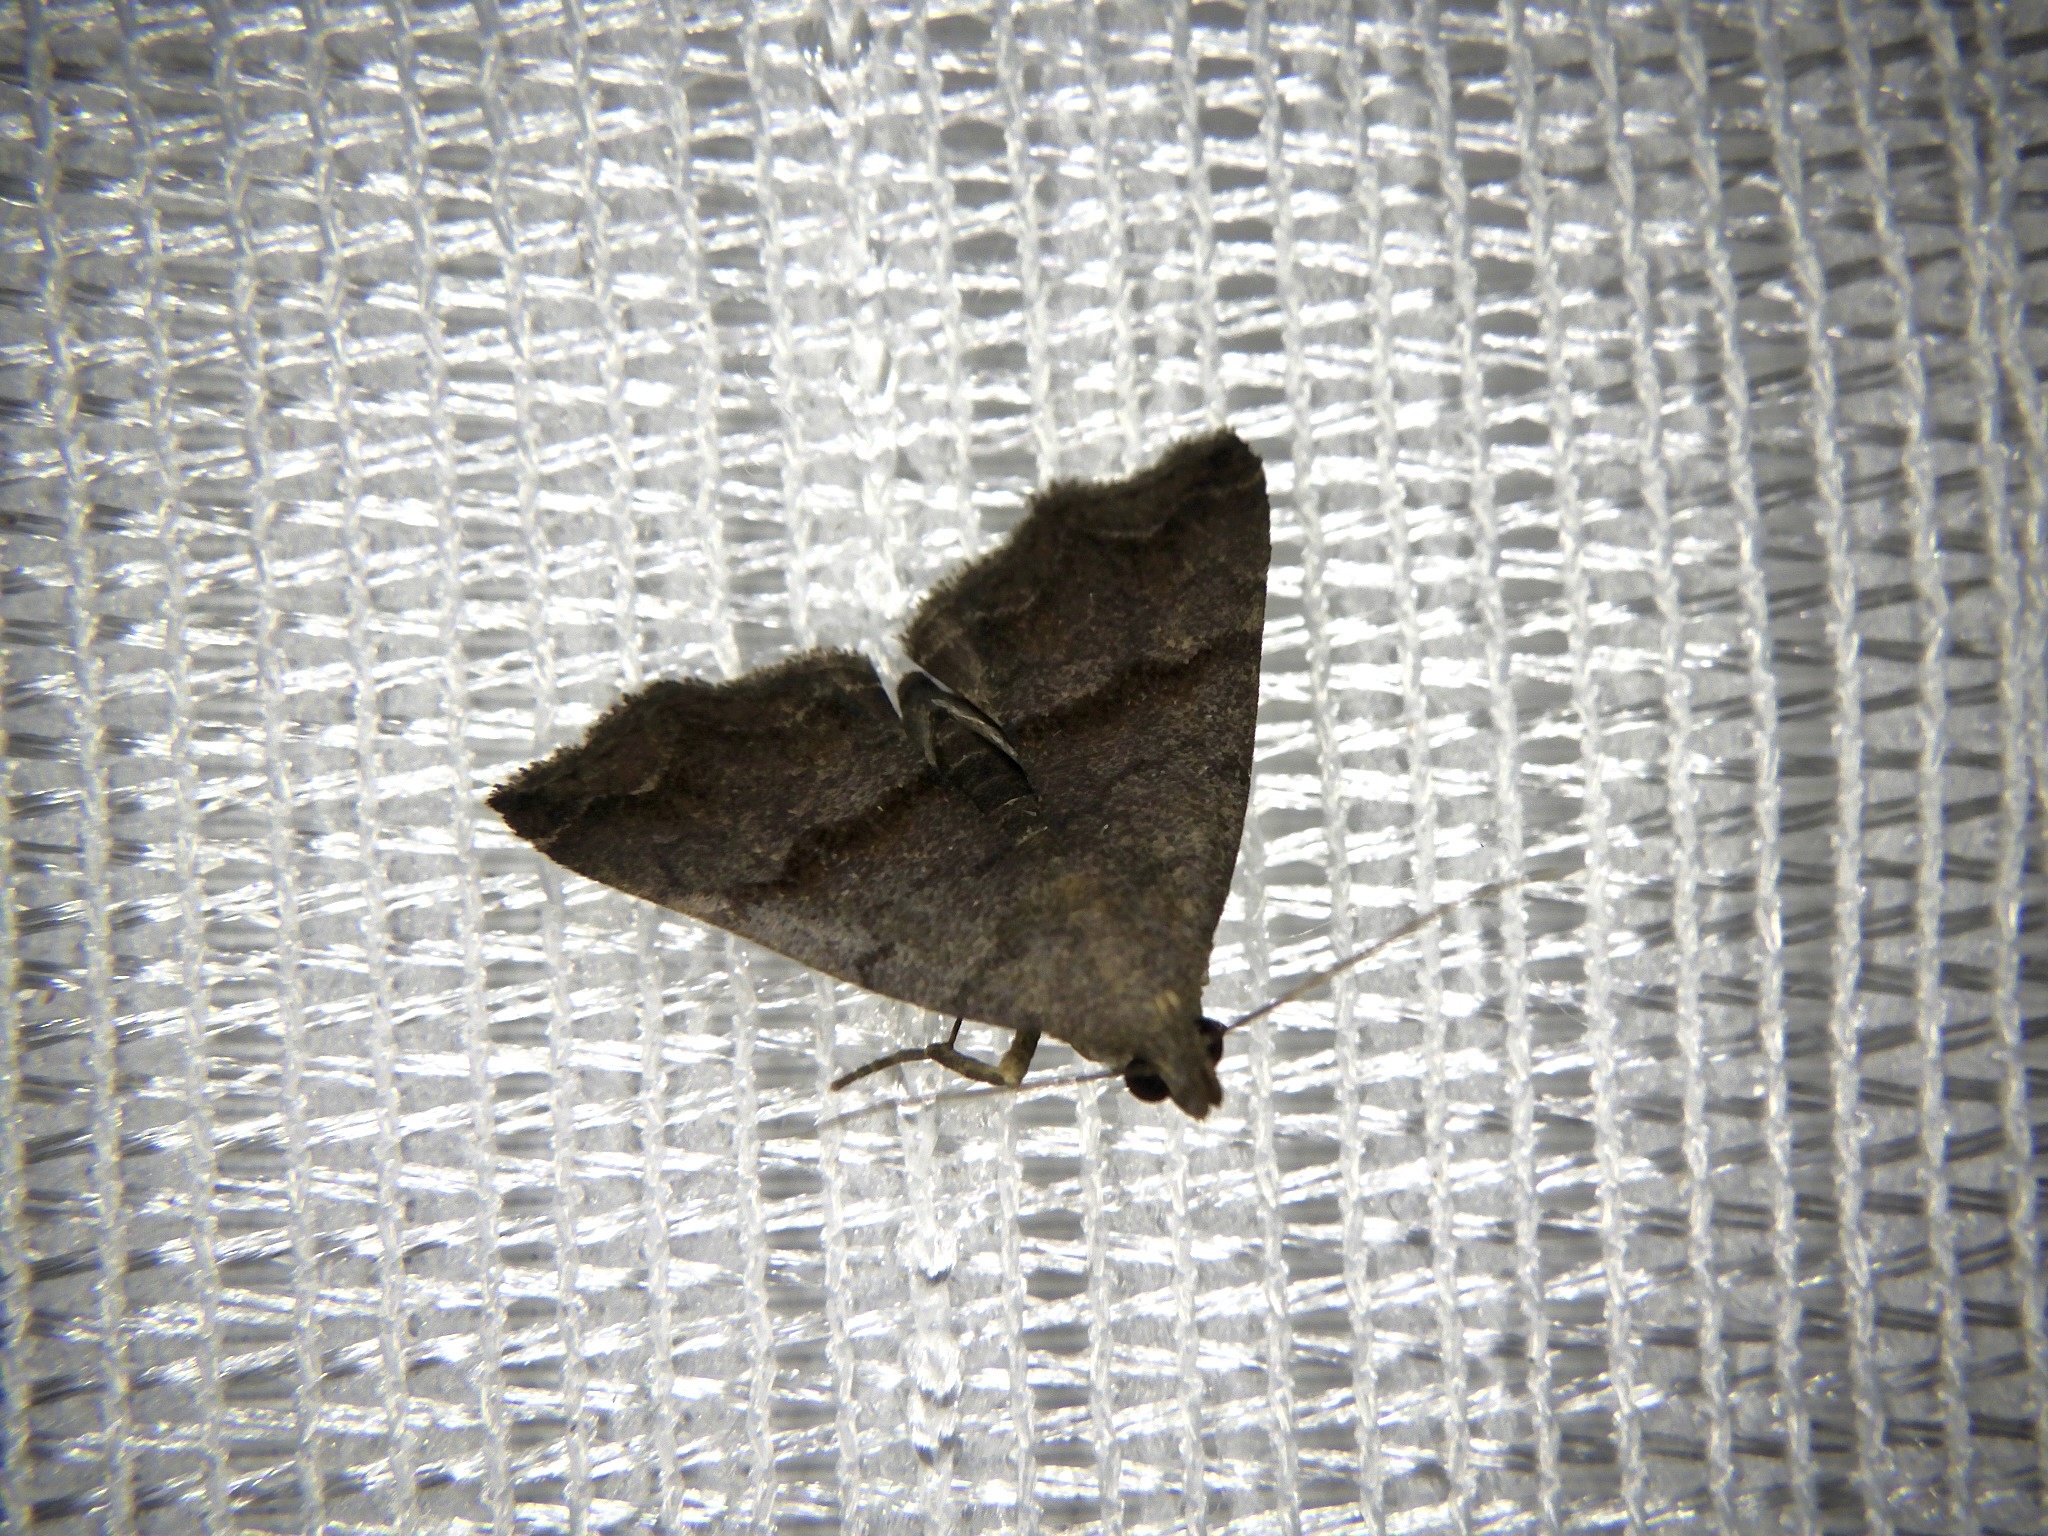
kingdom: Animalia
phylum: Arthropoda
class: Insecta
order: Lepidoptera
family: Erebidae
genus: Polypogon
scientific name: Polypogon Hipoepa fractalis
